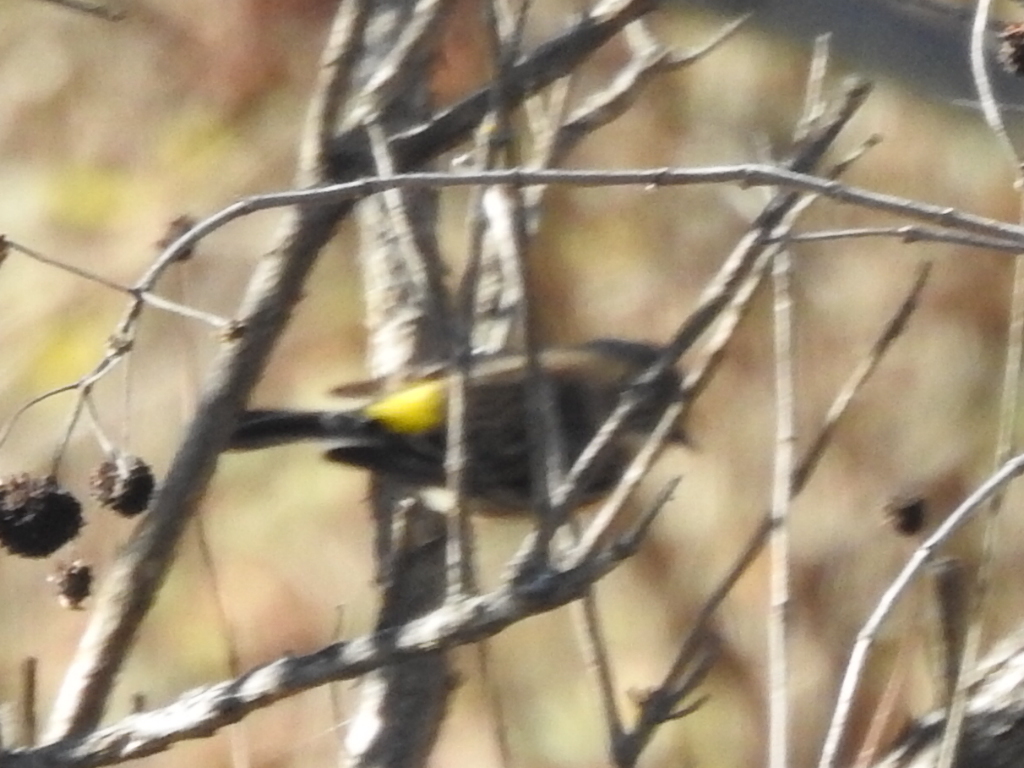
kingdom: Animalia
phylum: Chordata
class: Aves
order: Passeriformes
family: Parulidae
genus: Setophaga
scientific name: Setophaga coronata
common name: Myrtle warbler
